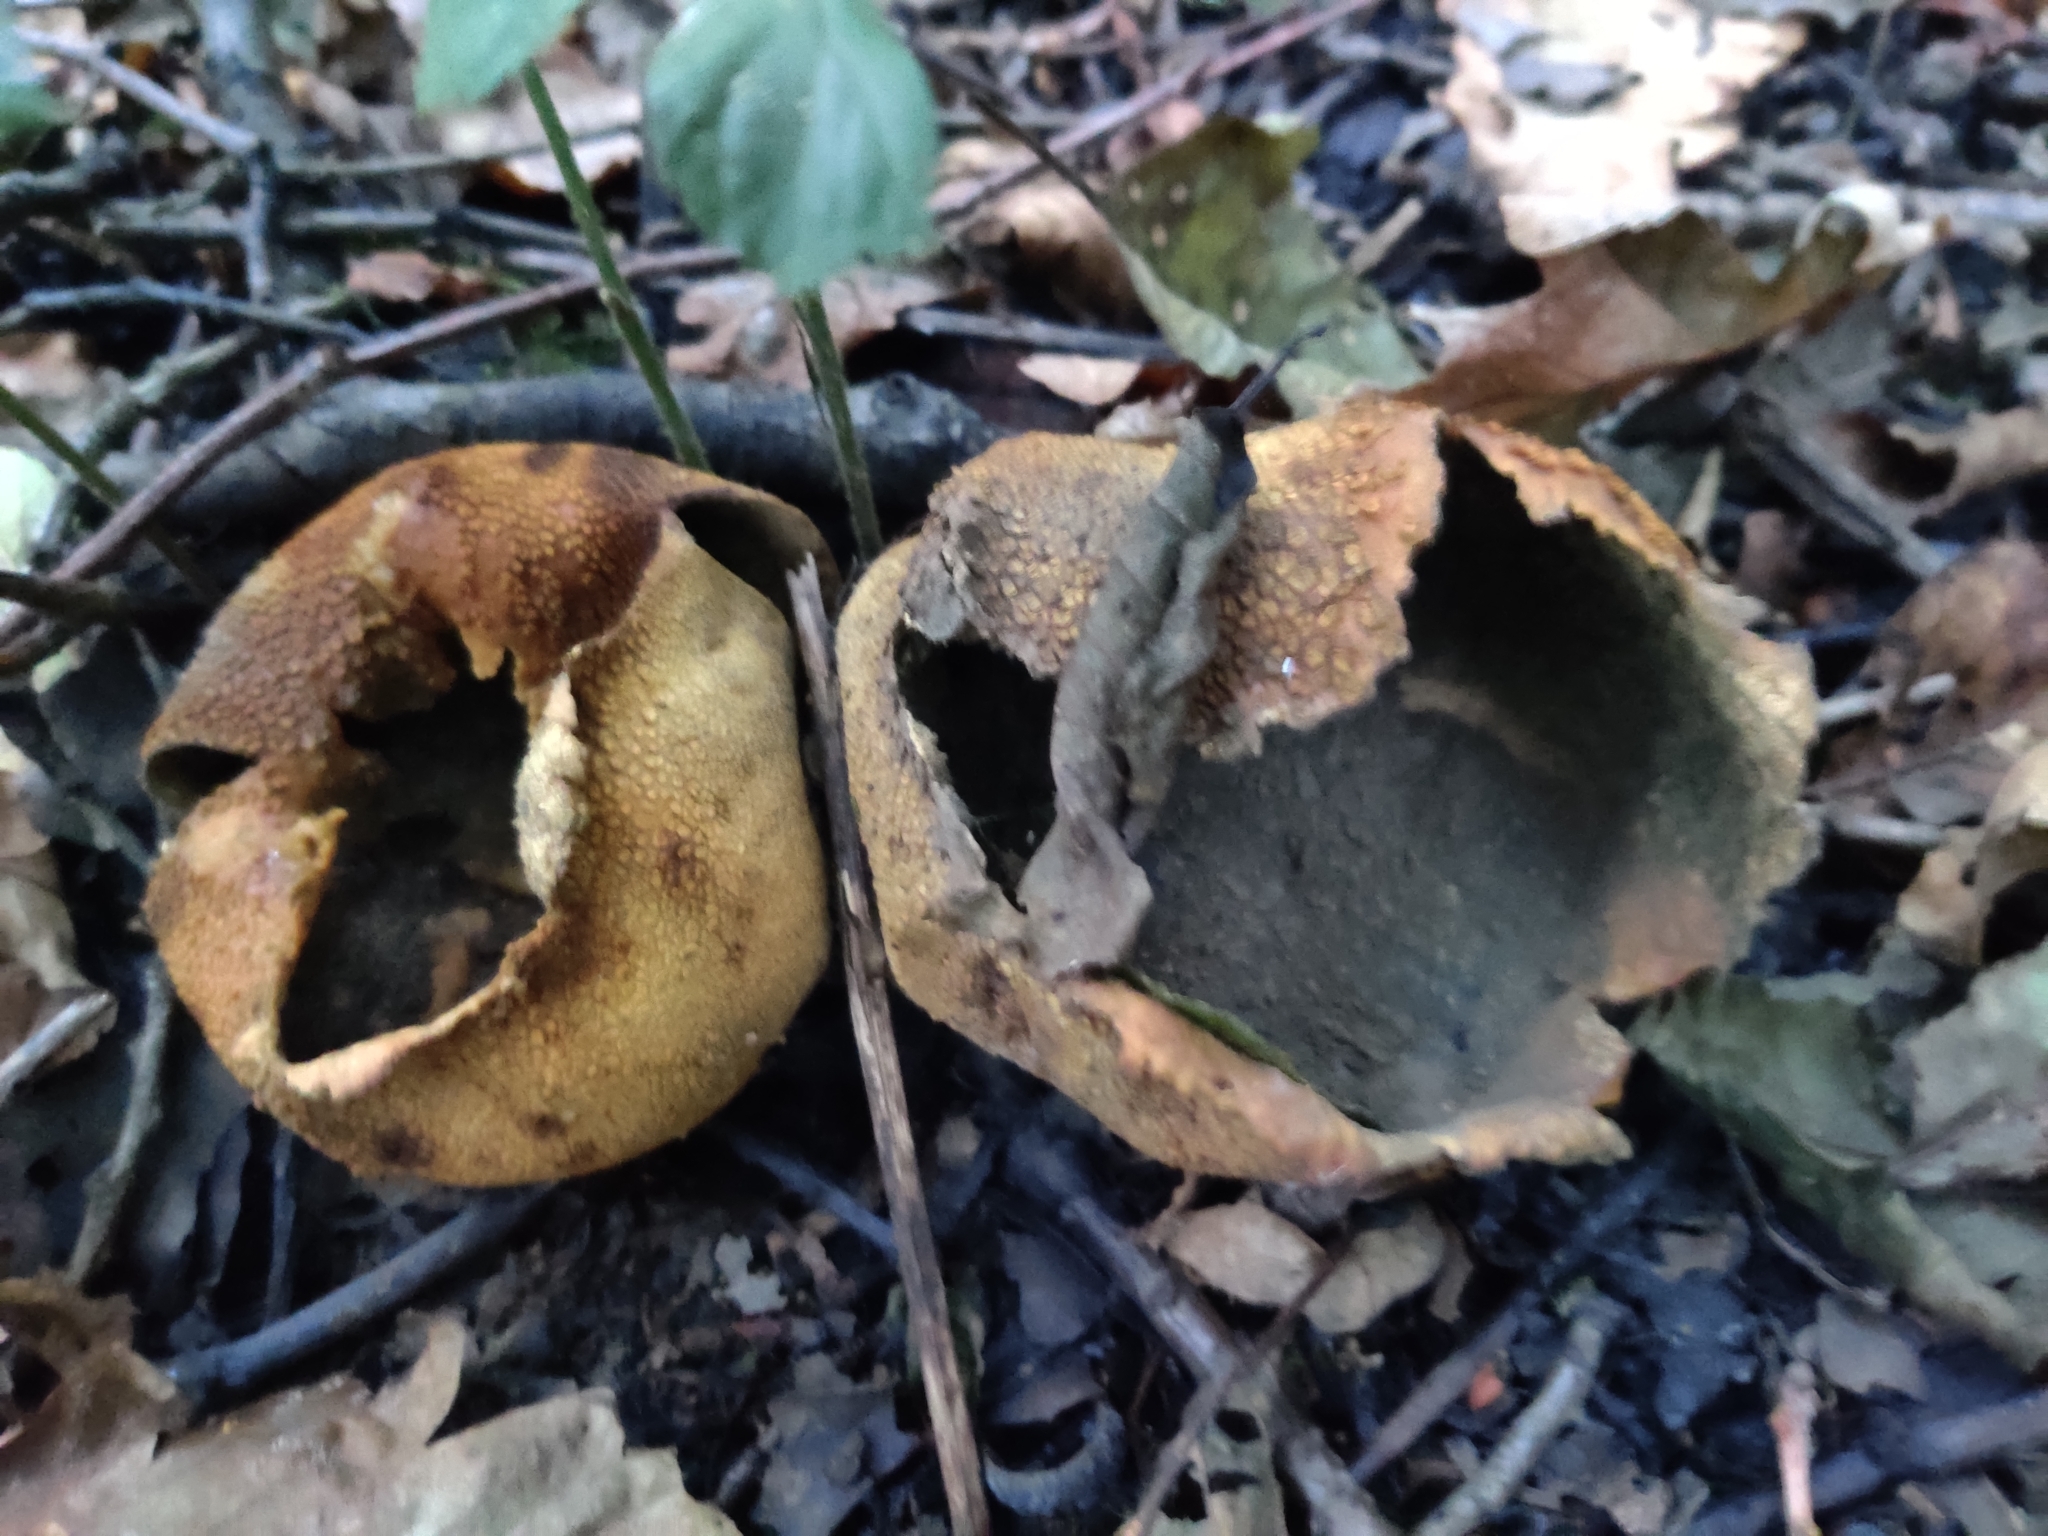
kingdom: Fungi
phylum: Basidiomycota
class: Agaricomycetes
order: Boletales
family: Sclerodermataceae
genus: Scleroderma
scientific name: Scleroderma citrinum
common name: Common earthball
